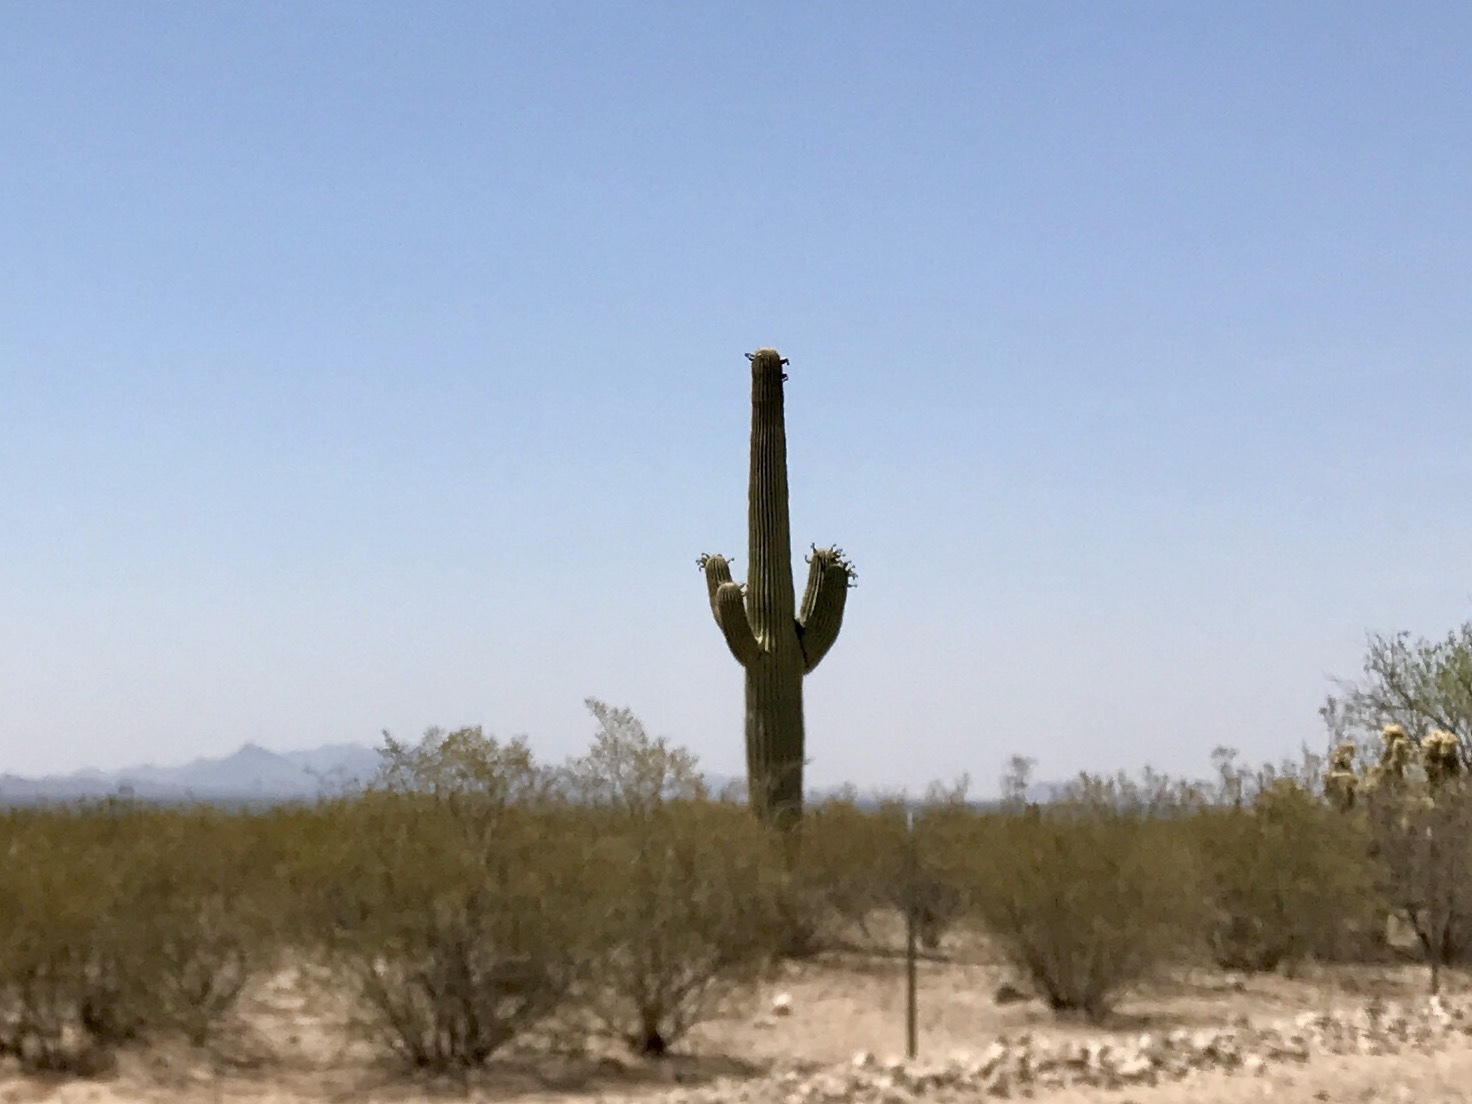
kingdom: Plantae
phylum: Tracheophyta
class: Magnoliopsida
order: Caryophyllales
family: Cactaceae
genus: Carnegiea
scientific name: Carnegiea gigantea
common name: Saguaro
